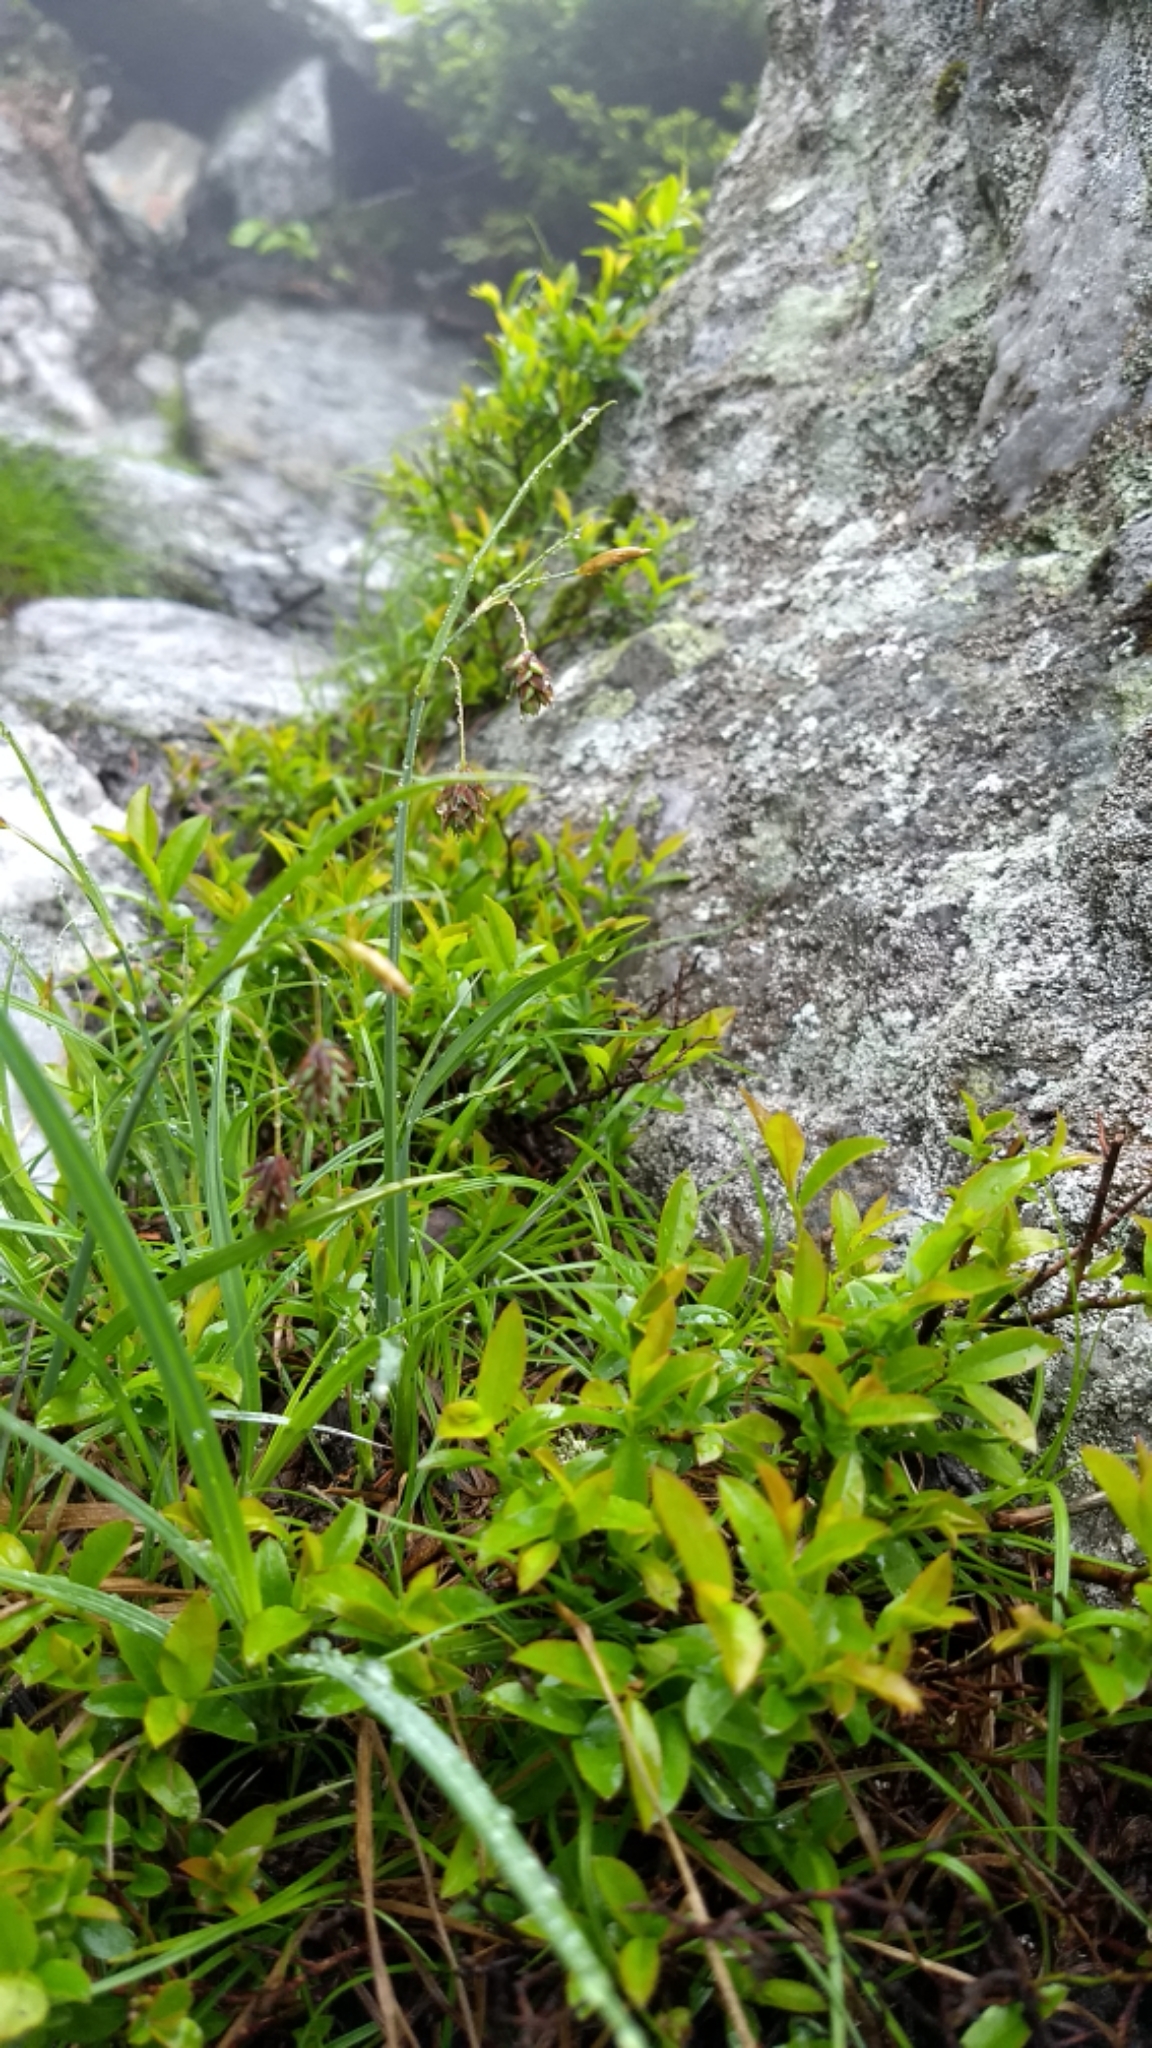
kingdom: Plantae
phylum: Tracheophyta
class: Liliopsida
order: Poales
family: Cyperaceae
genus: Carex
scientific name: Carex magellanica
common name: Bog sedge
